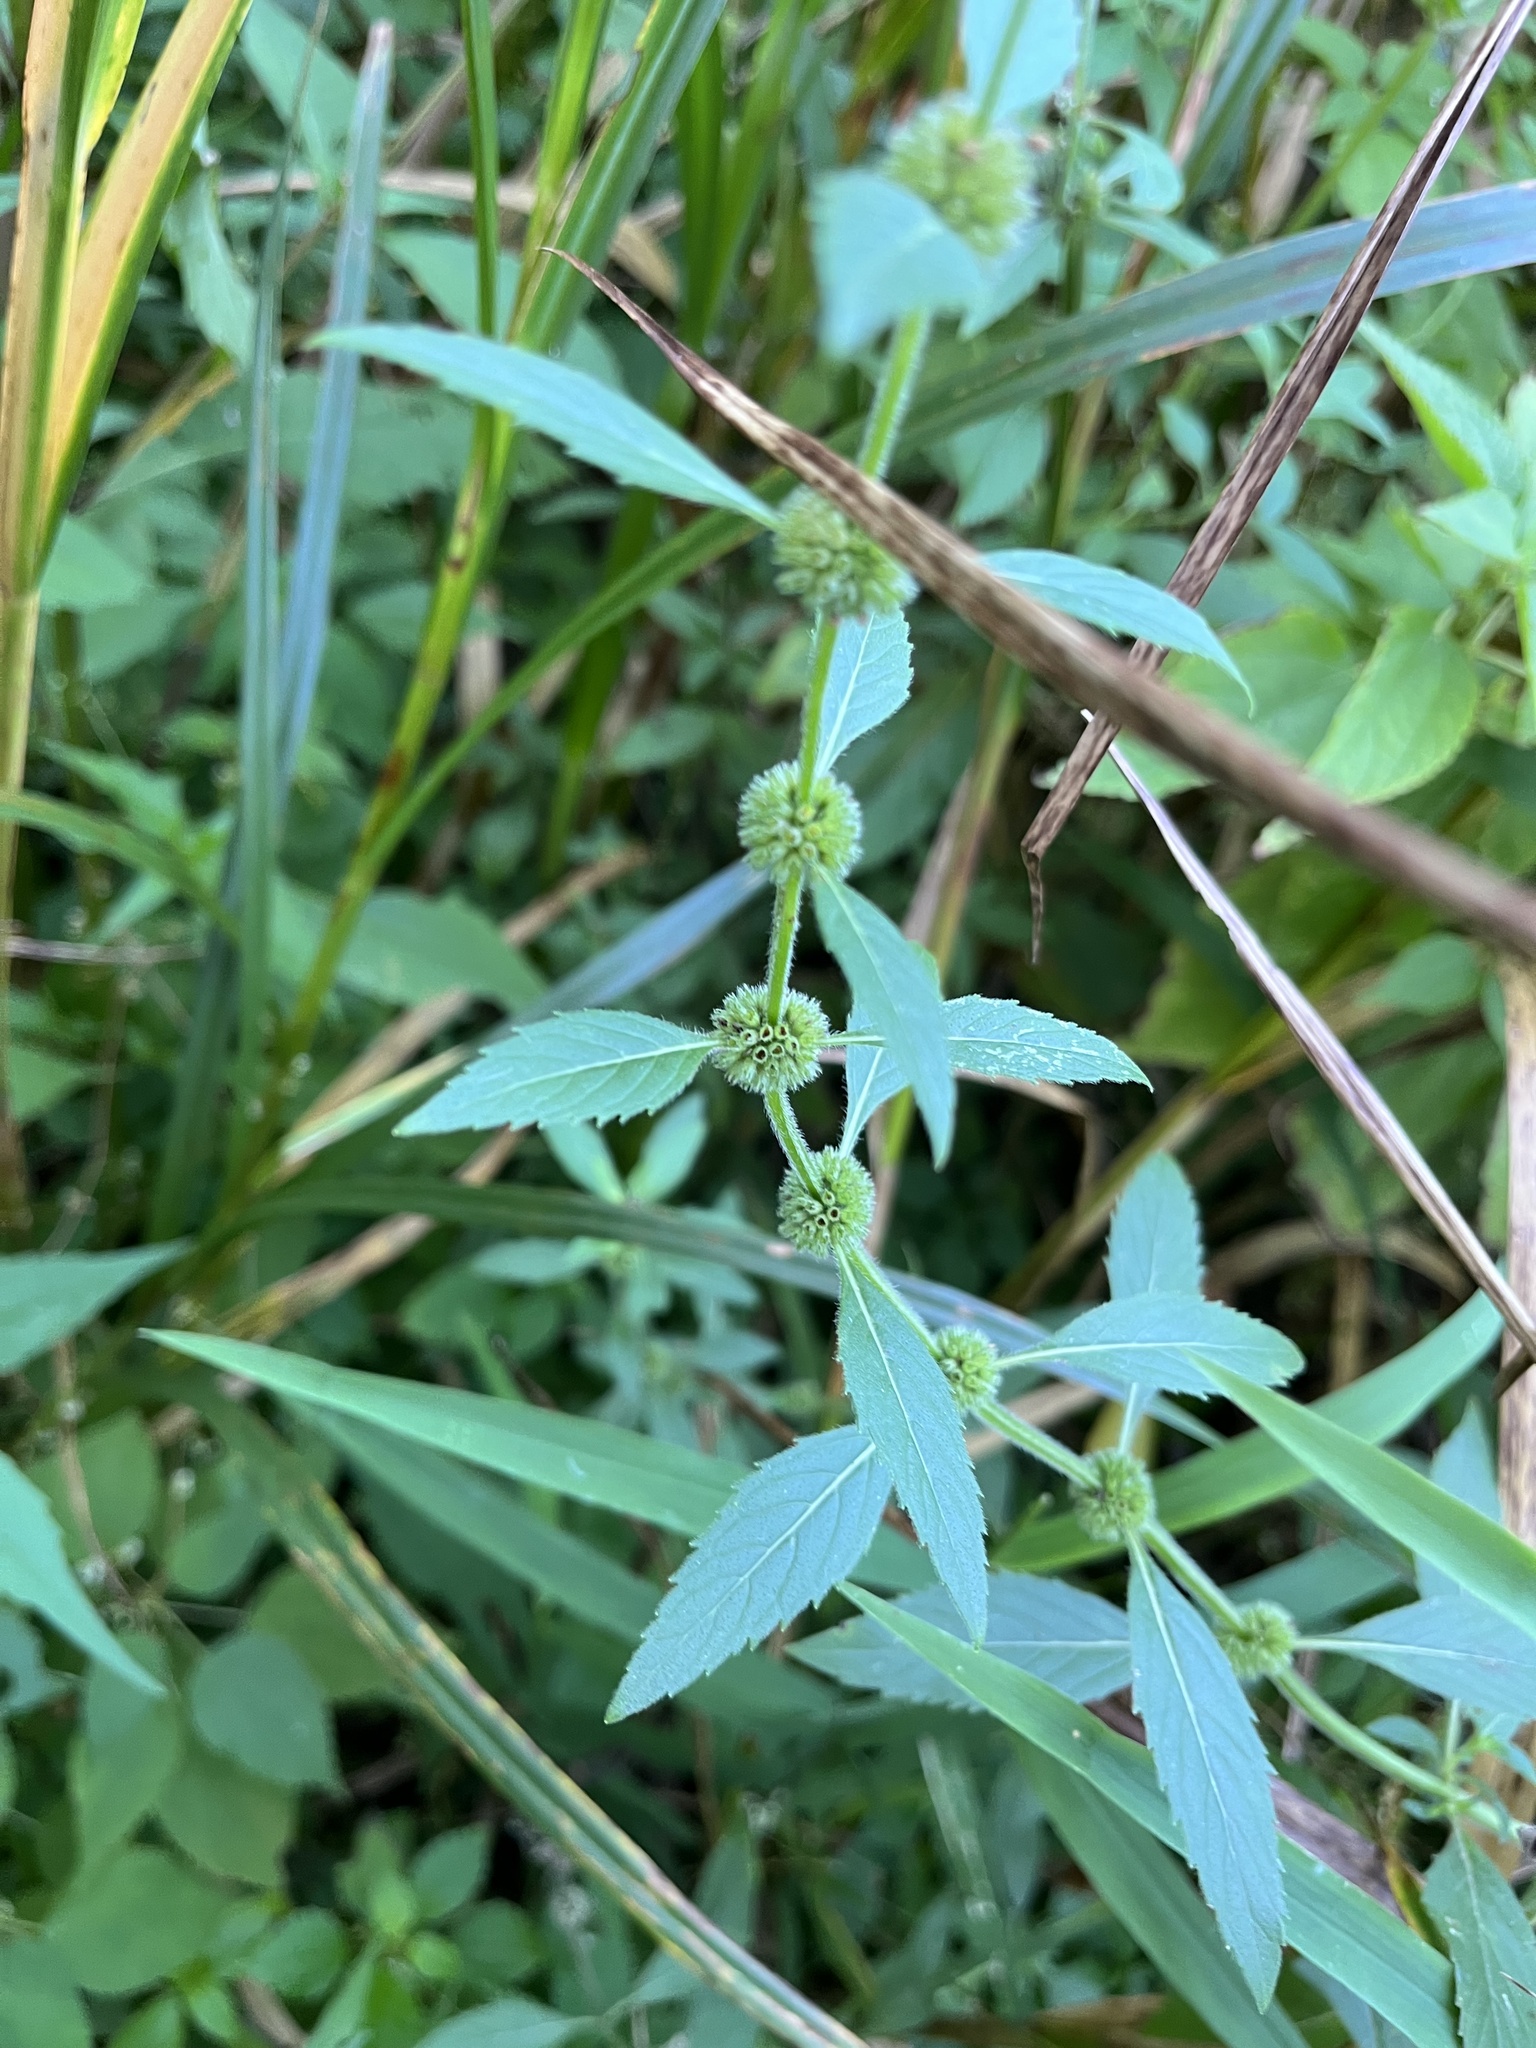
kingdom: Plantae
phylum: Tracheophyta
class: Magnoliopsida
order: Lamiales
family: Lamiaceae
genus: Mentha
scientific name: Mentha canadensis
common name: American corn mint
